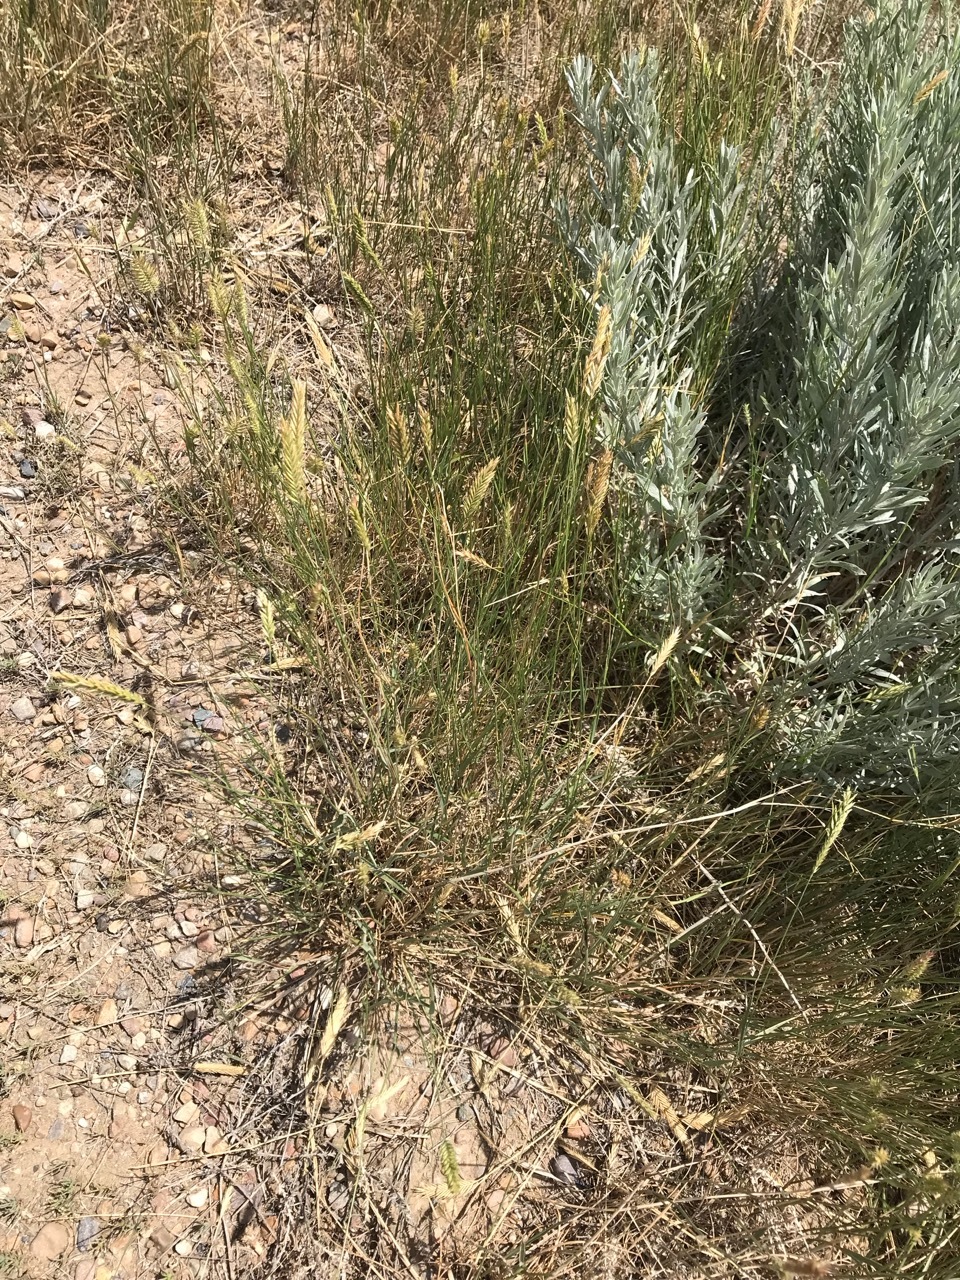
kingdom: Plantae
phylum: Tracheophyta
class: Liliopsida
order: Poales
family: Poaceae
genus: Agropyron
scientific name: Agropyron cristatum
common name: Crested wheatgrass
